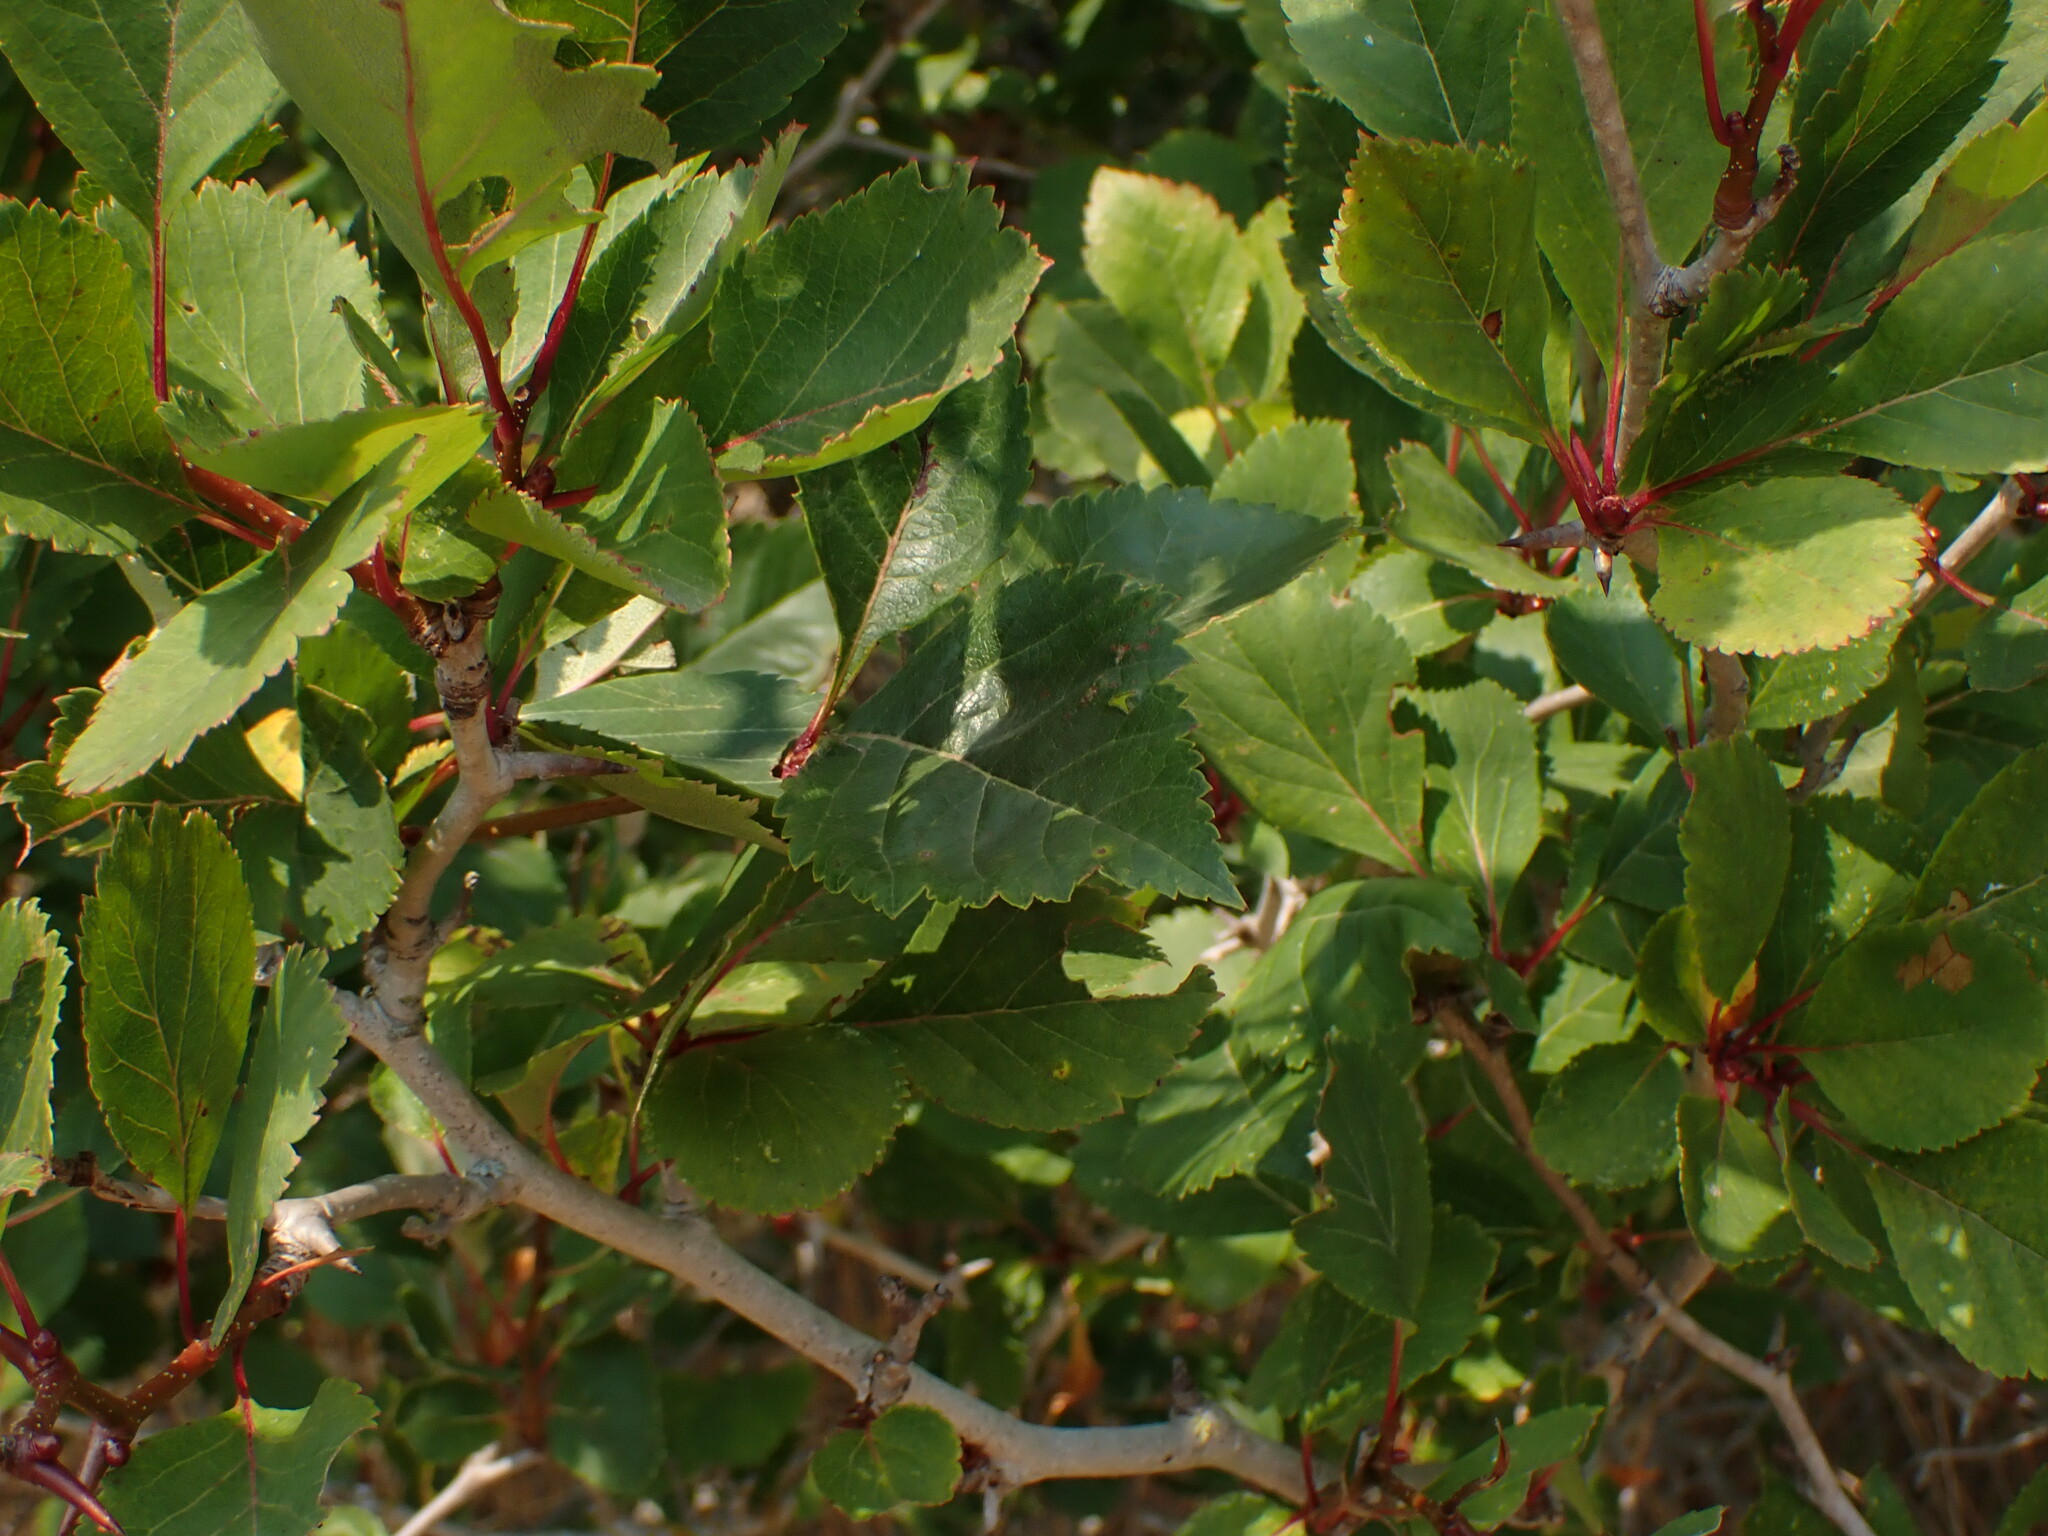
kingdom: Plantae
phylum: Tracheophyta
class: Magnoliopsida
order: Rosales
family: Rosaceae
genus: Crataegus
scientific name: Crataegus douglasii
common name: Black hawthorn
